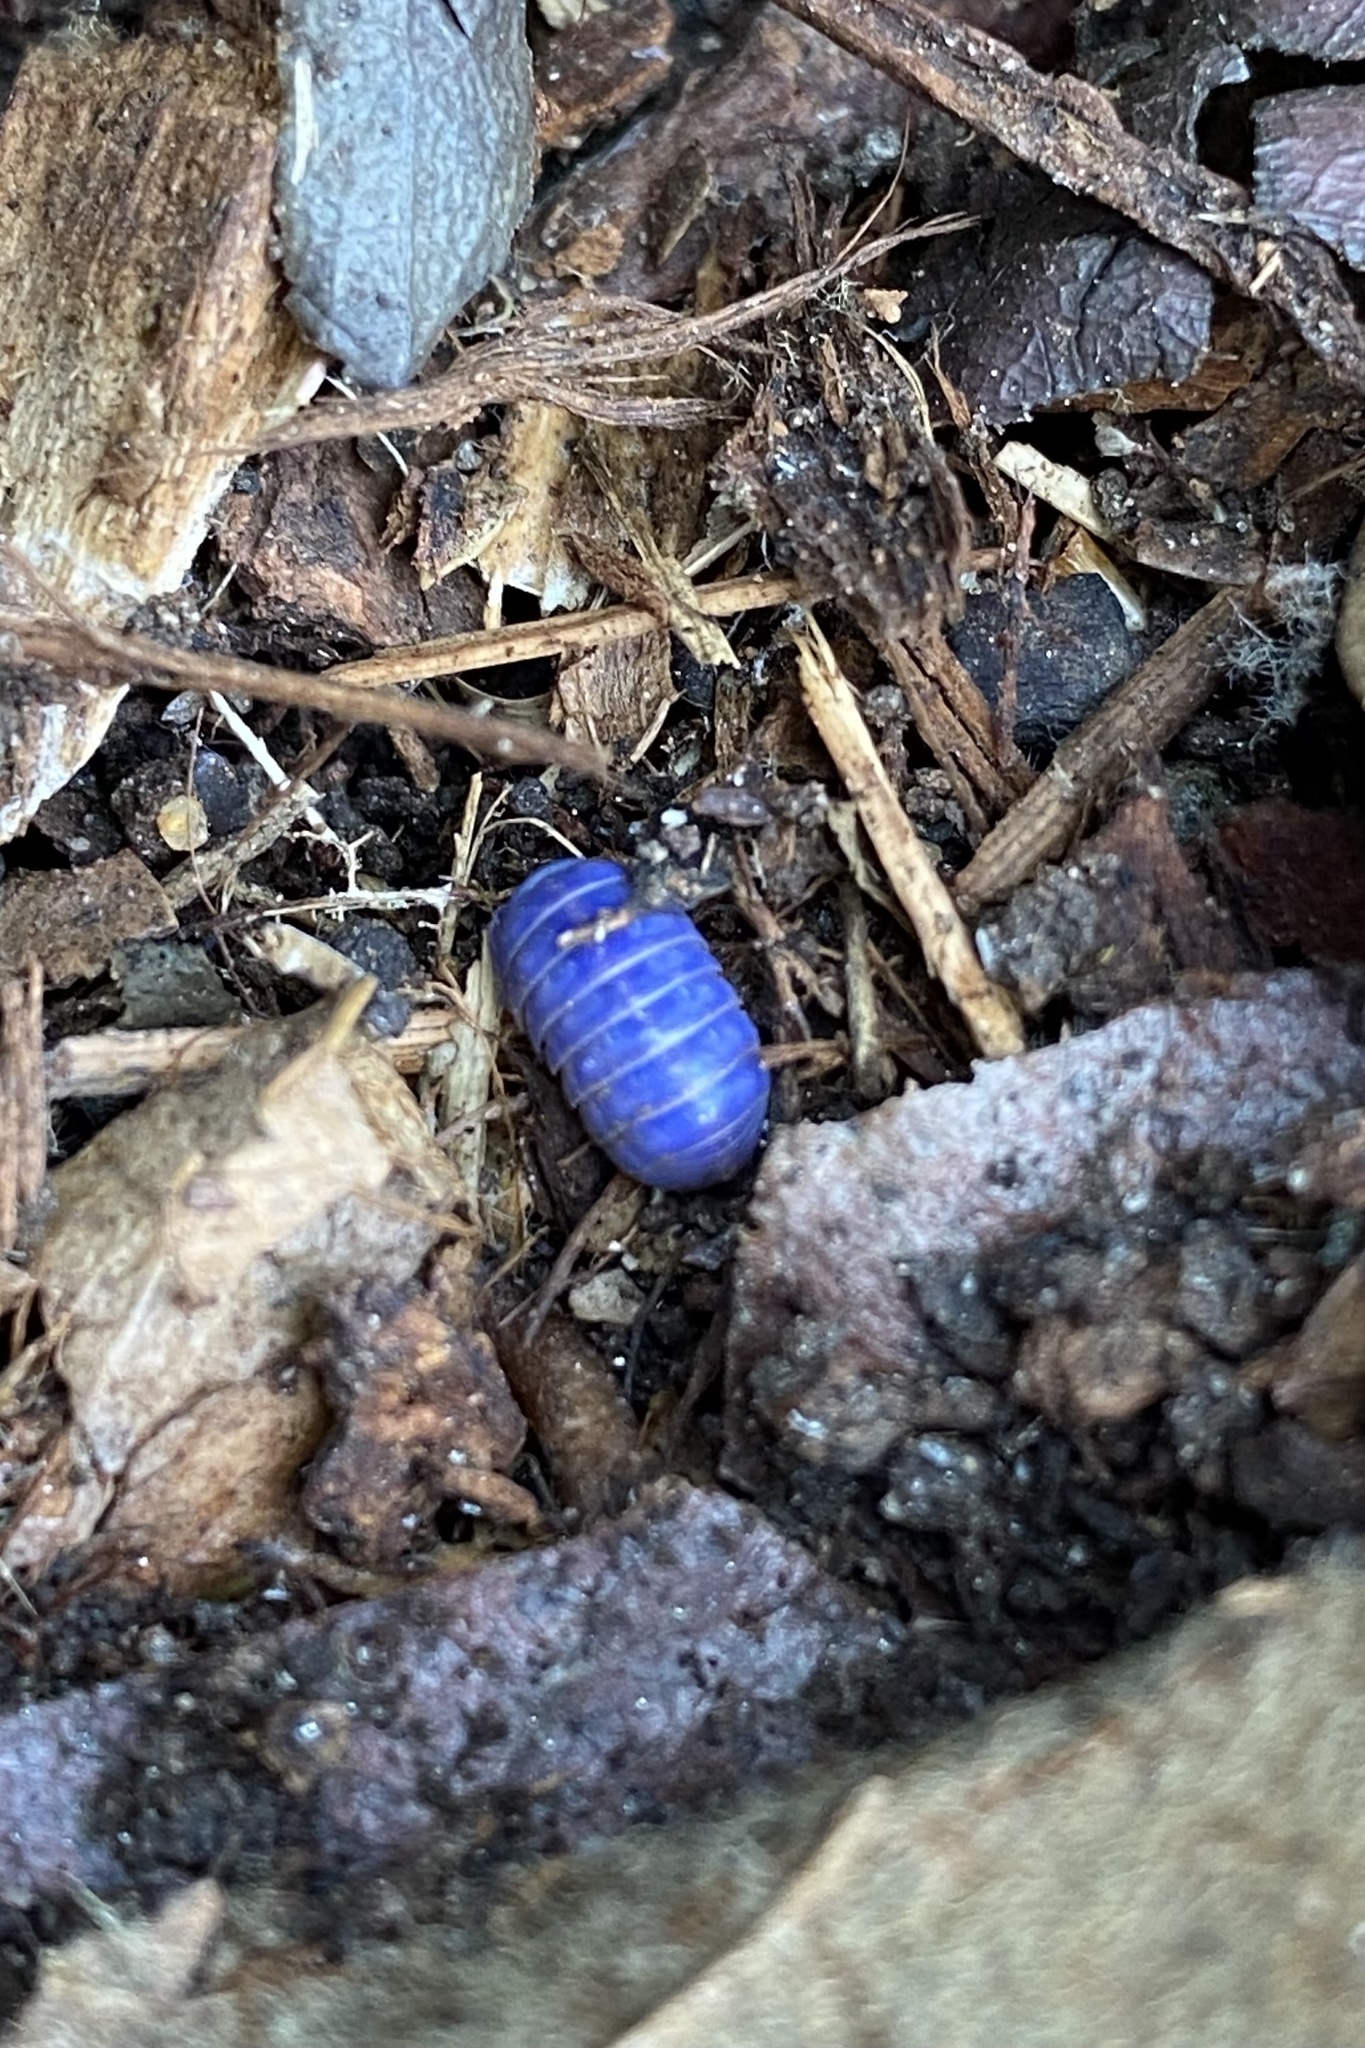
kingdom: Viruses
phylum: Nucleocytoviricota
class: Megaviricetes
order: Pimascovirales
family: Iridoviridae
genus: Iridovirus
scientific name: Iridovirus Invertebrate iridescent virus 31
